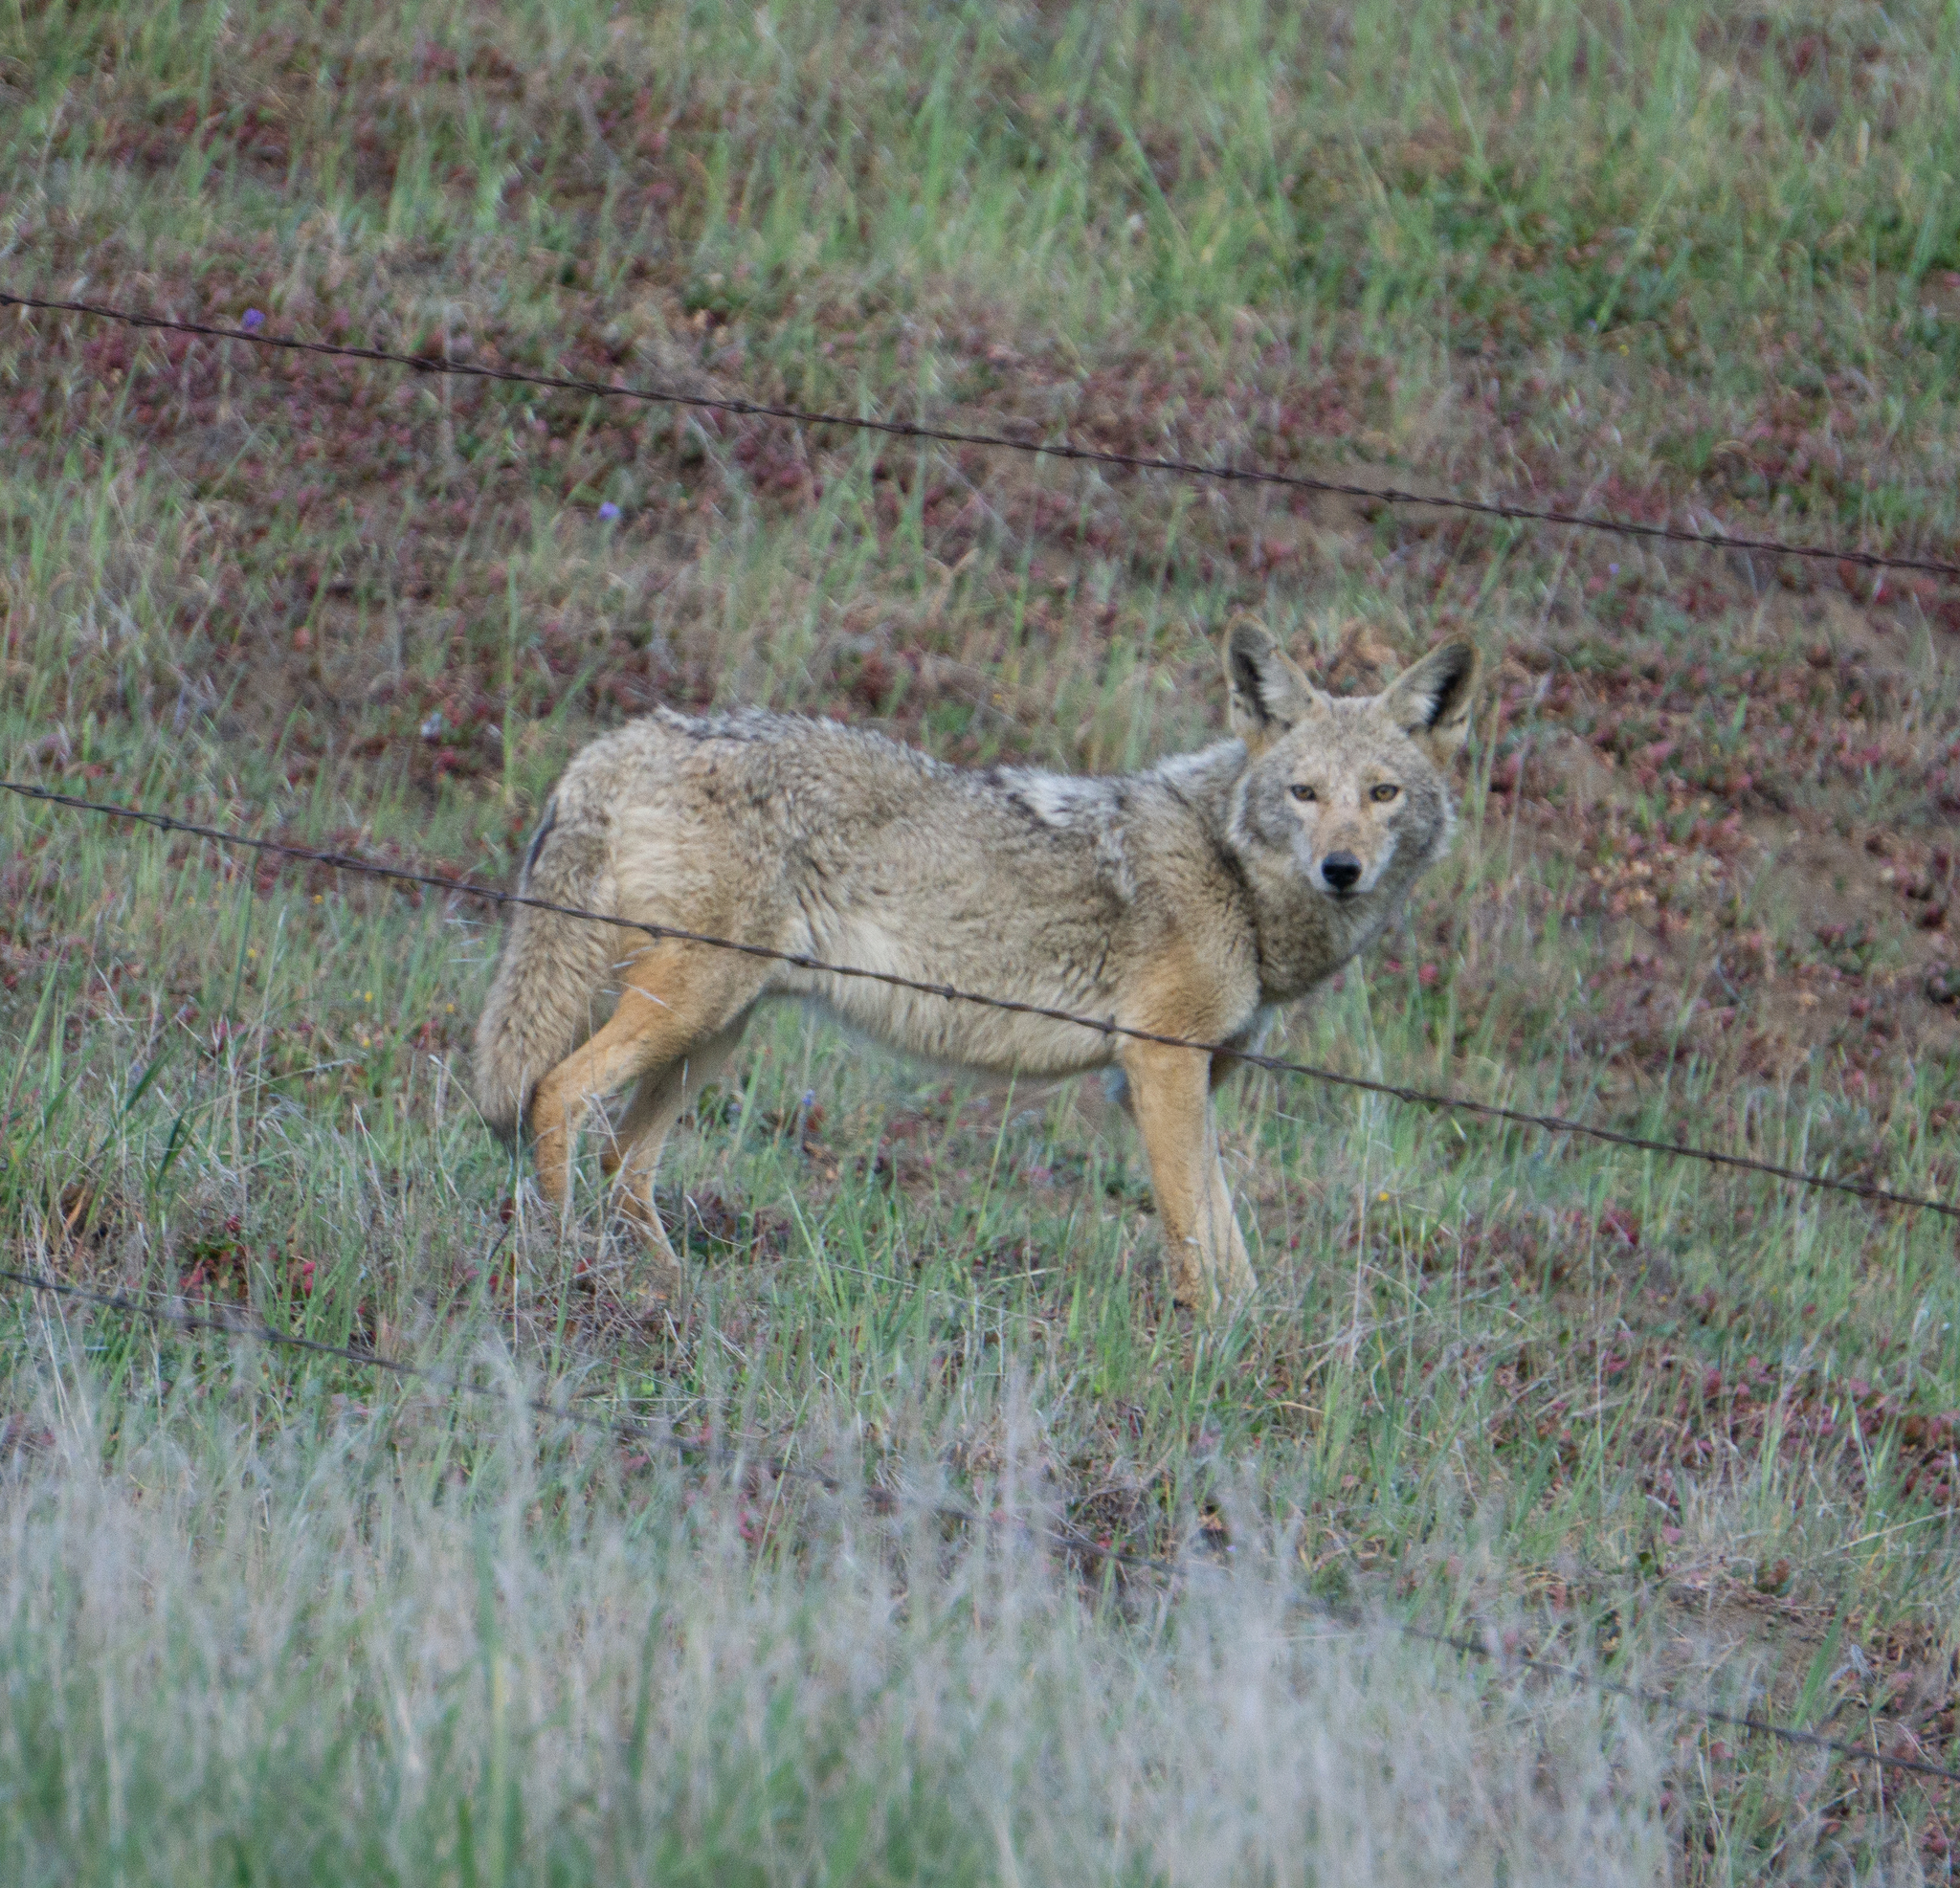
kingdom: Animalia
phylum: Chordata
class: Mammalia
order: Carnivora
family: Canidae
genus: Canis
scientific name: Canis latrans
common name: Coyote
